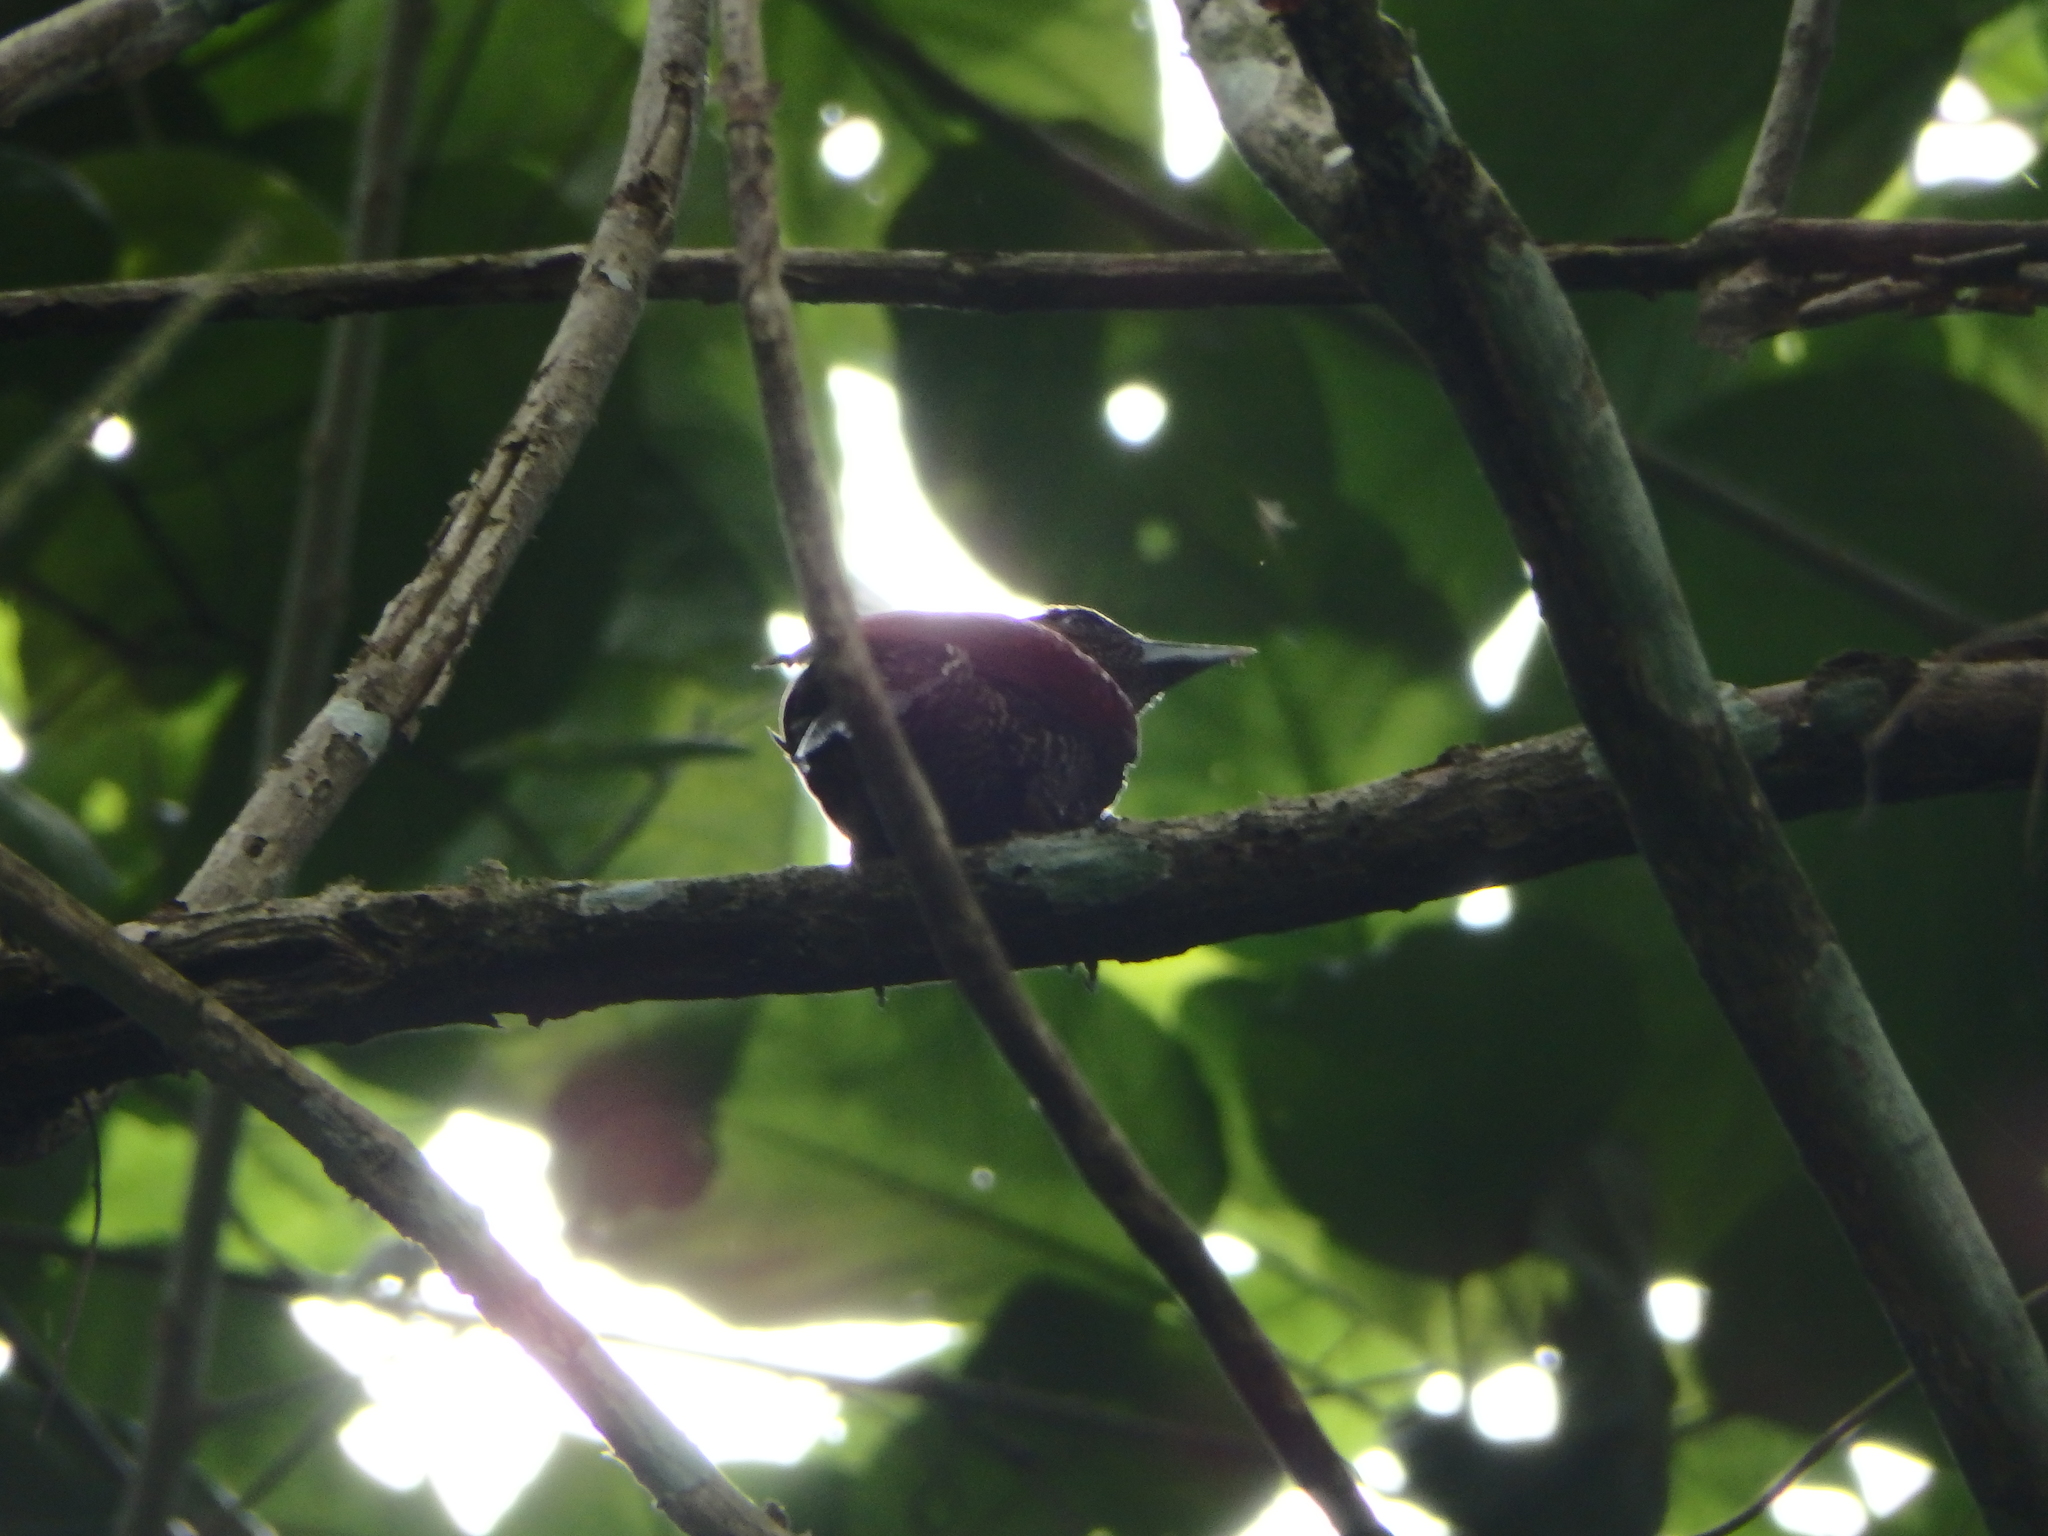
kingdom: Animalia
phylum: Chordata
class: Aves
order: Piciformes
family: Picidae
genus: Chrysophlegma
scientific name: Chrysophlegma miniaceum
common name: Banded woodpecker
